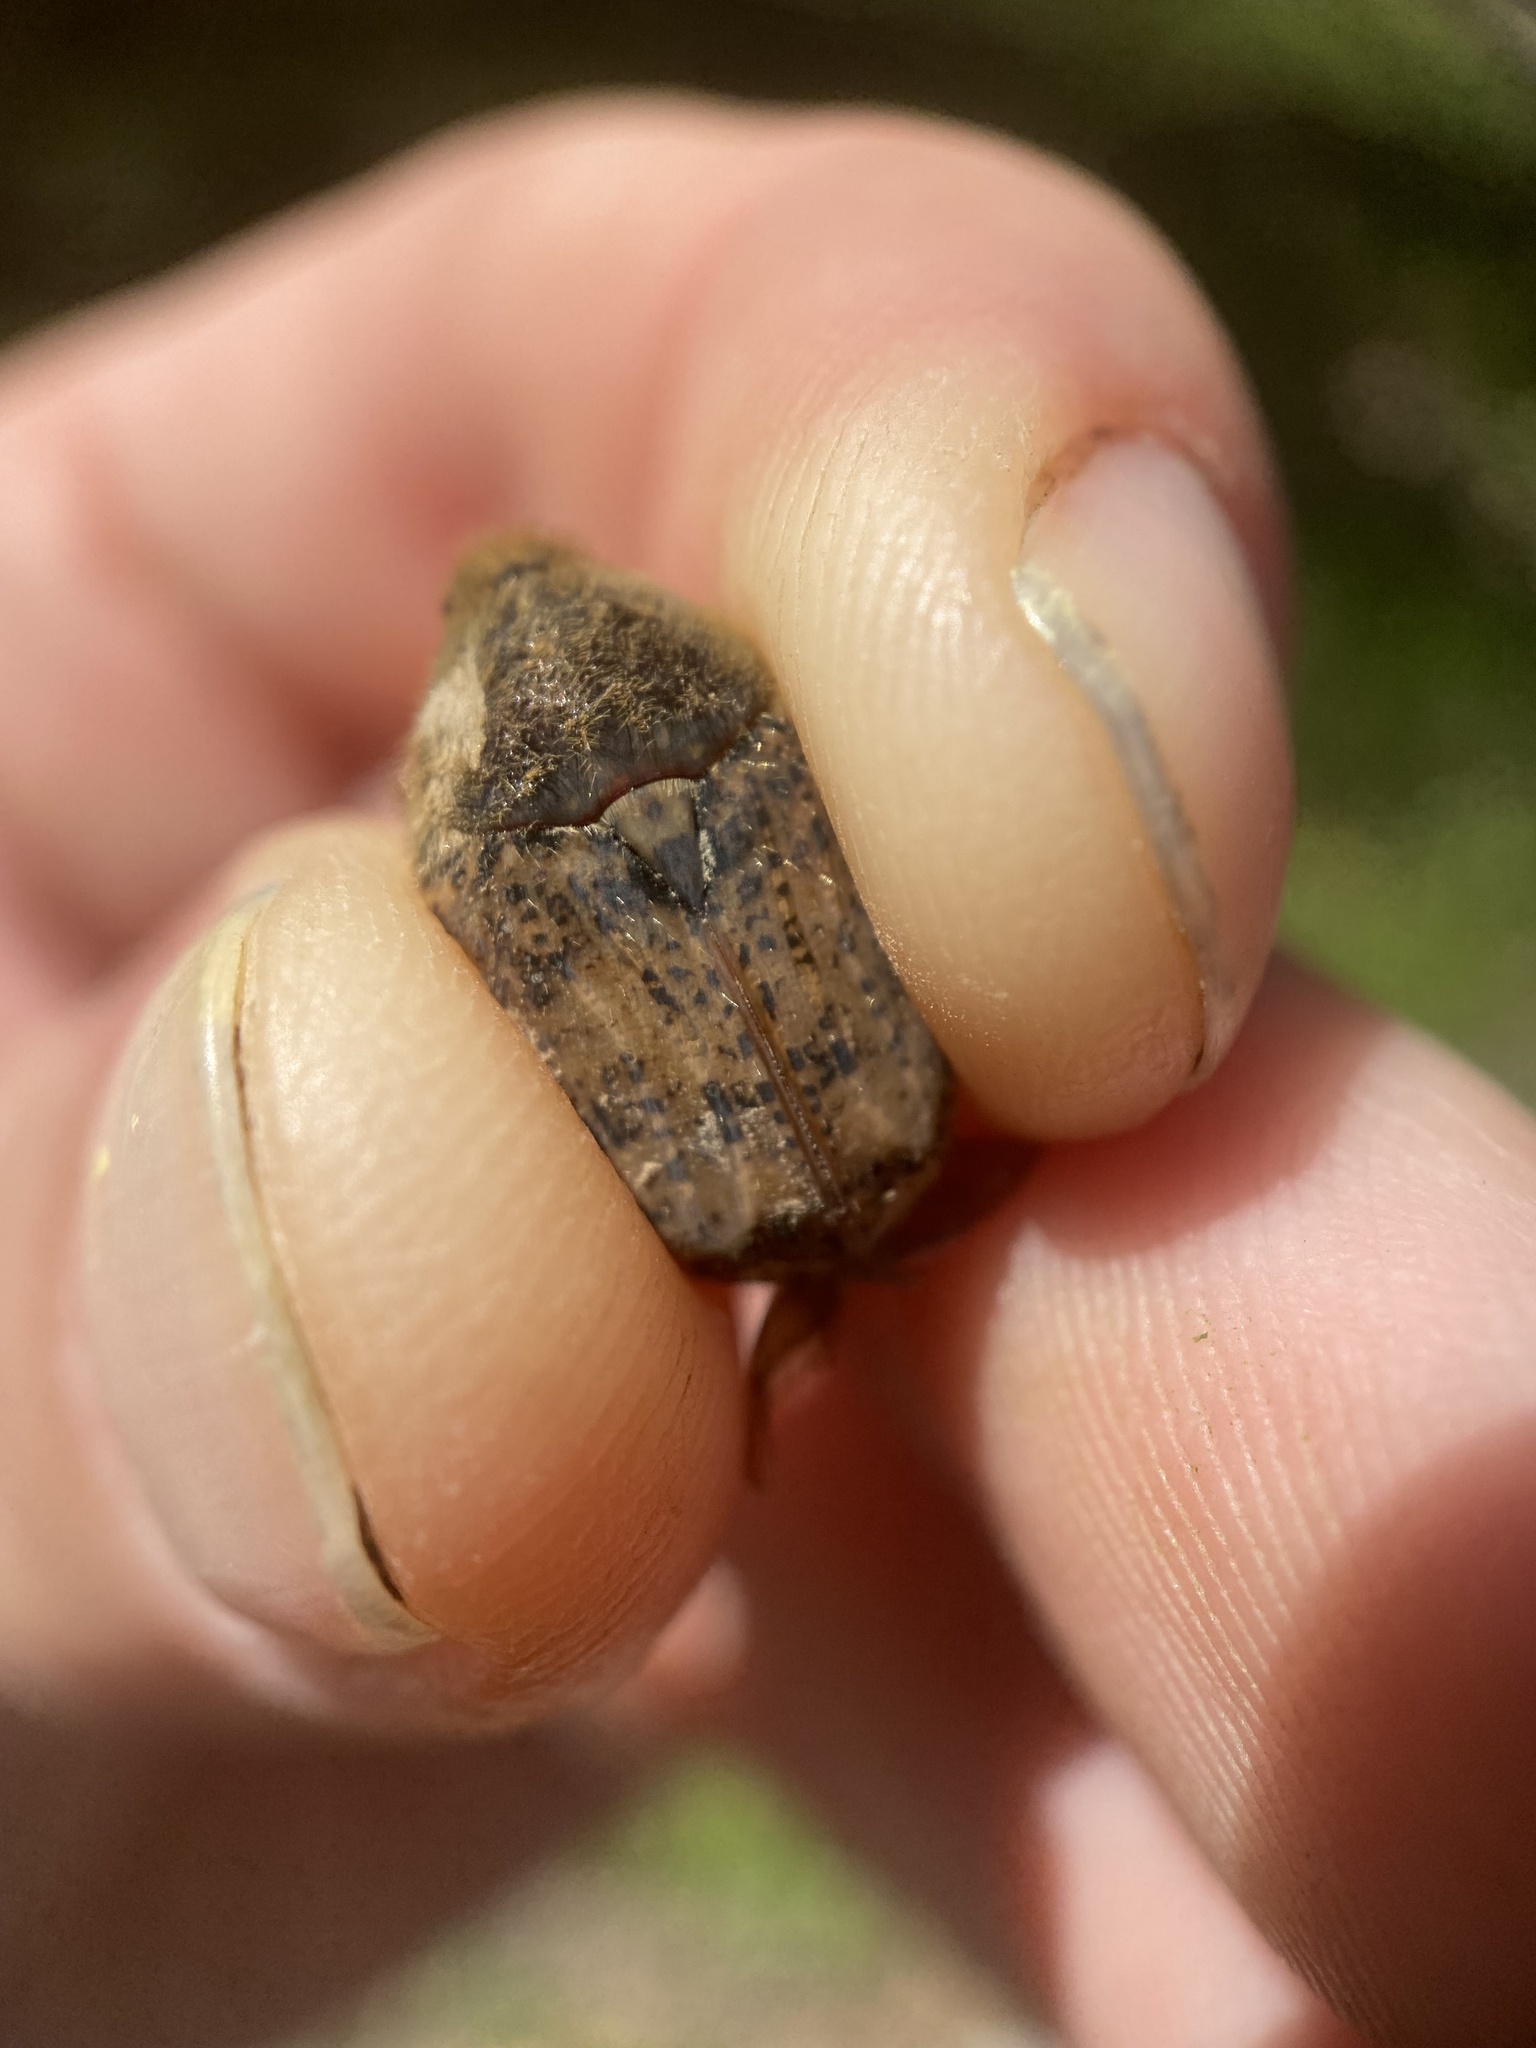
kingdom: Animalia
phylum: Arthropoda
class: Insecta
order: Coleoptera
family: Scarabaeidae
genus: Euphoria
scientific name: Euphoria inda
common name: Bumble flower beetle
